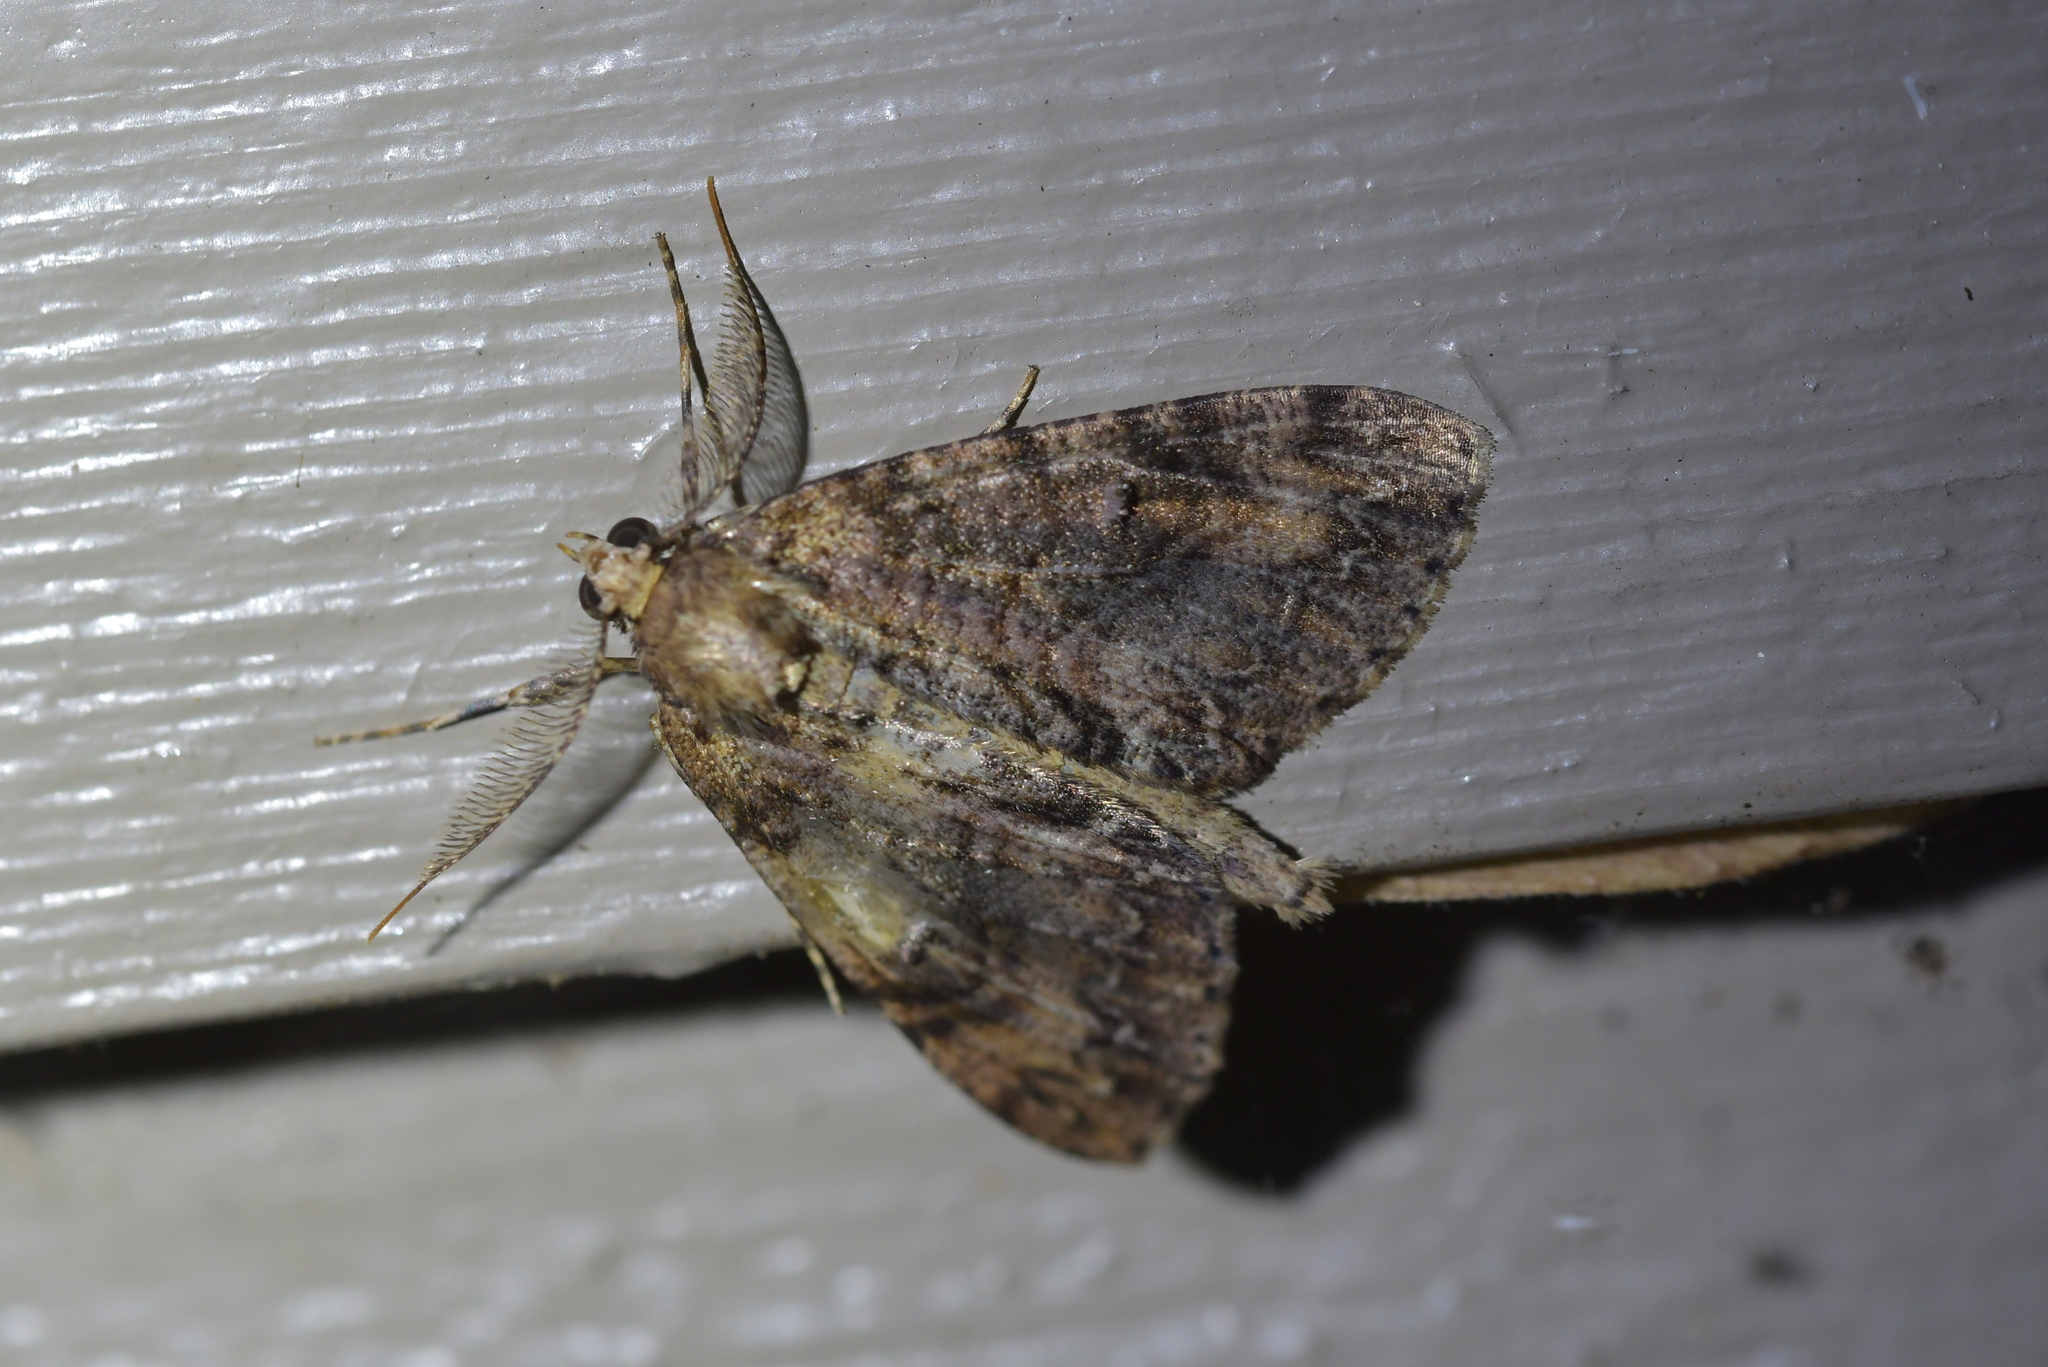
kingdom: Animalia
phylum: Arthropoda
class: Insecta
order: Lepidoptera
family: Geometridae
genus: Pseudocoremia
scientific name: Pseudocoremia suavis
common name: Common forest looper
